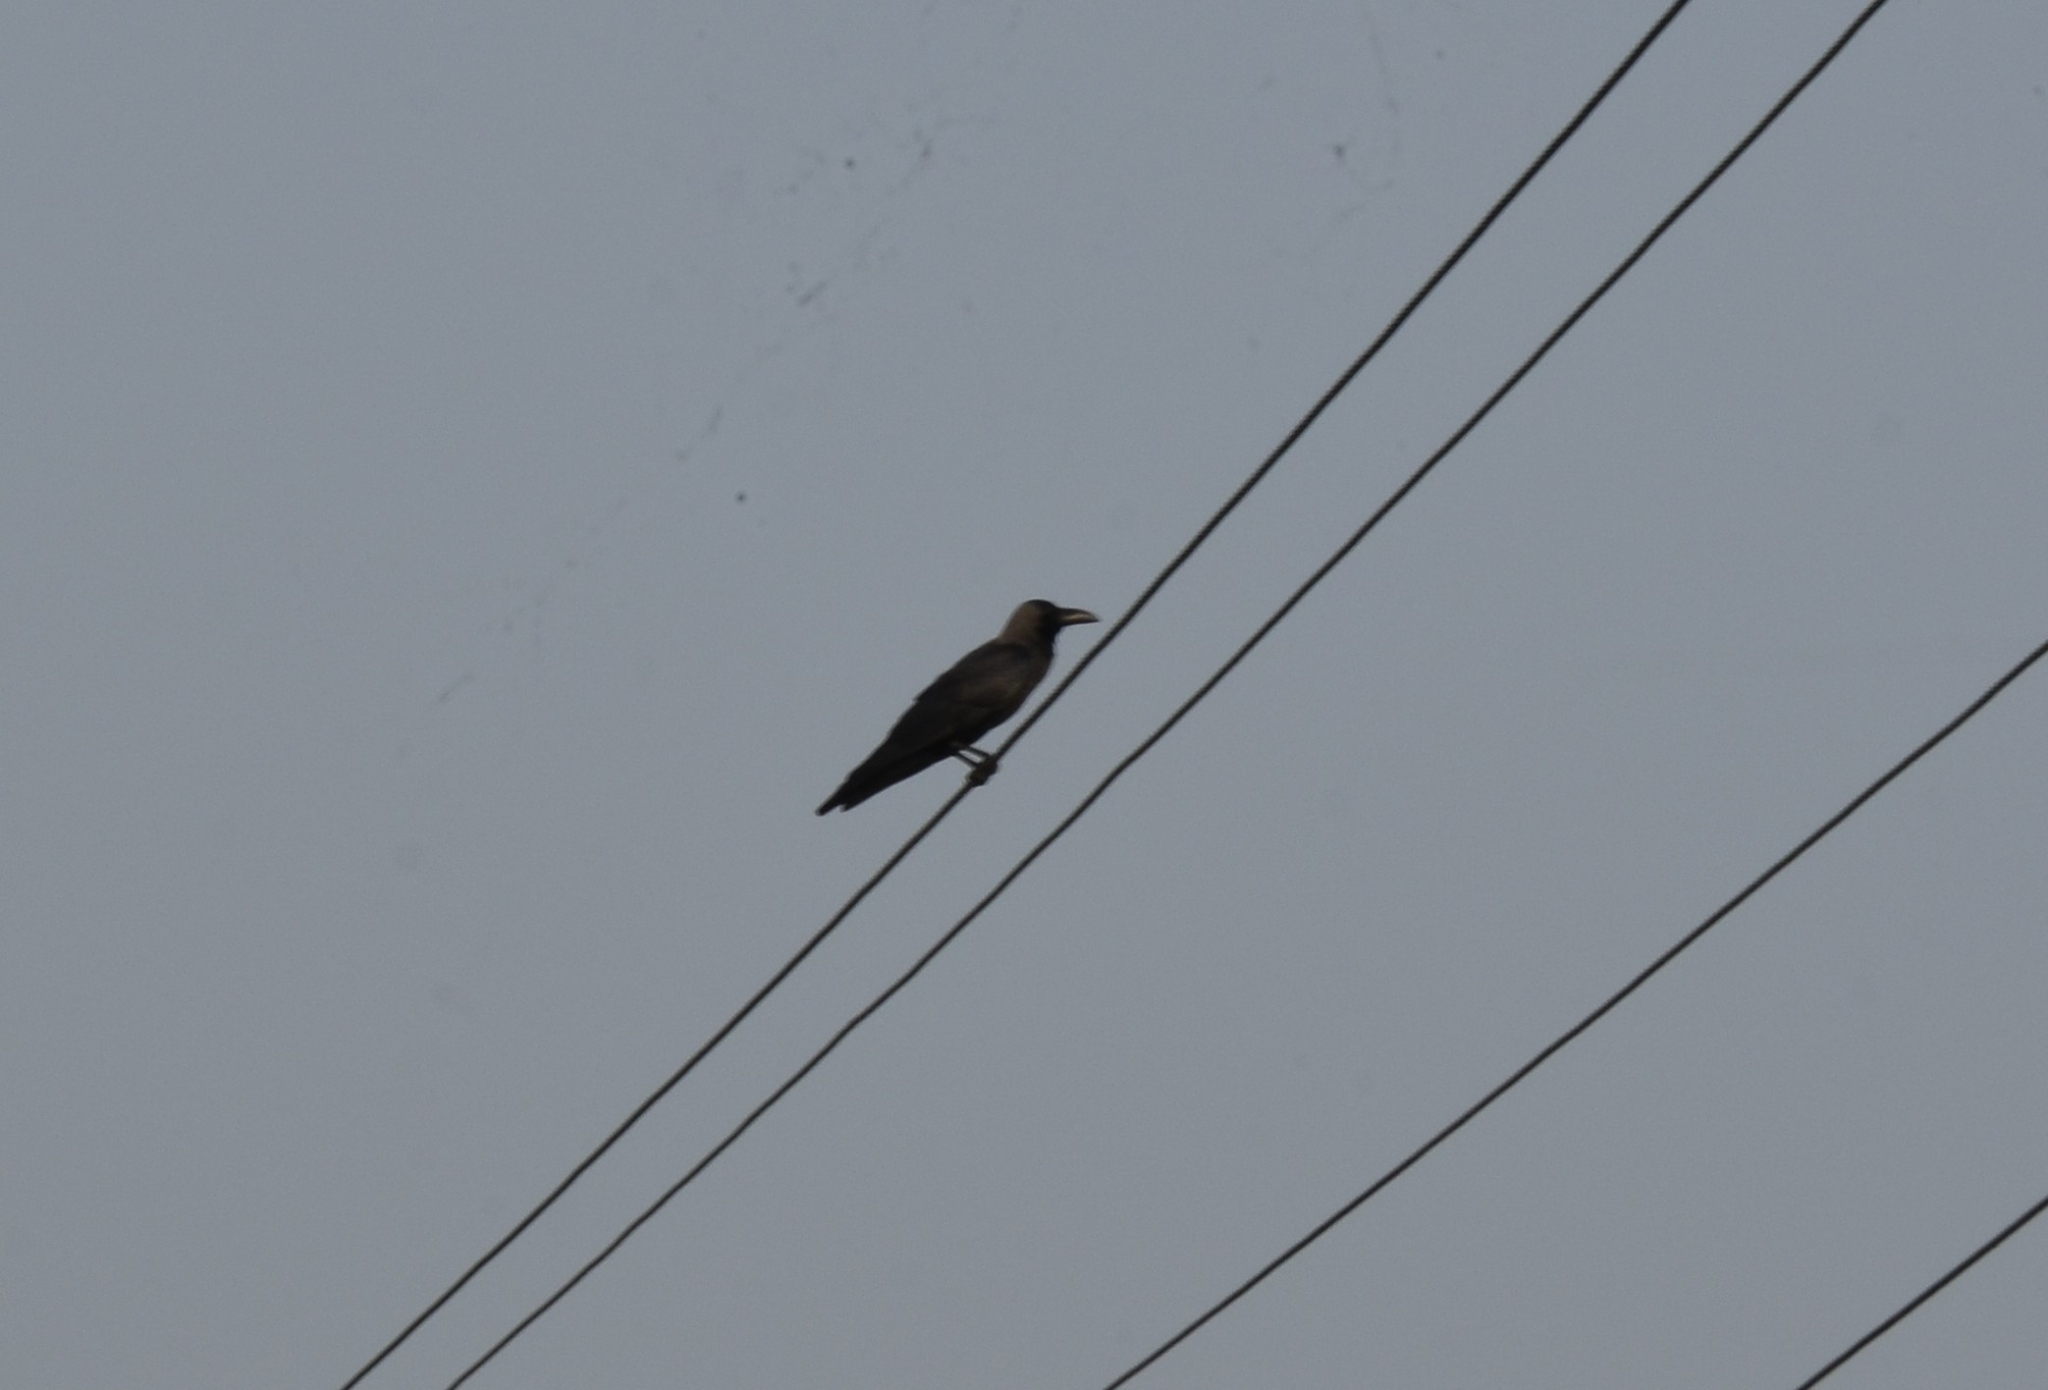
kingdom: Animalia
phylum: Chordata
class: Aves
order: Passeriformes
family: Corvidae
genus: Corvus
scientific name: Corvus splendens
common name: House crow
